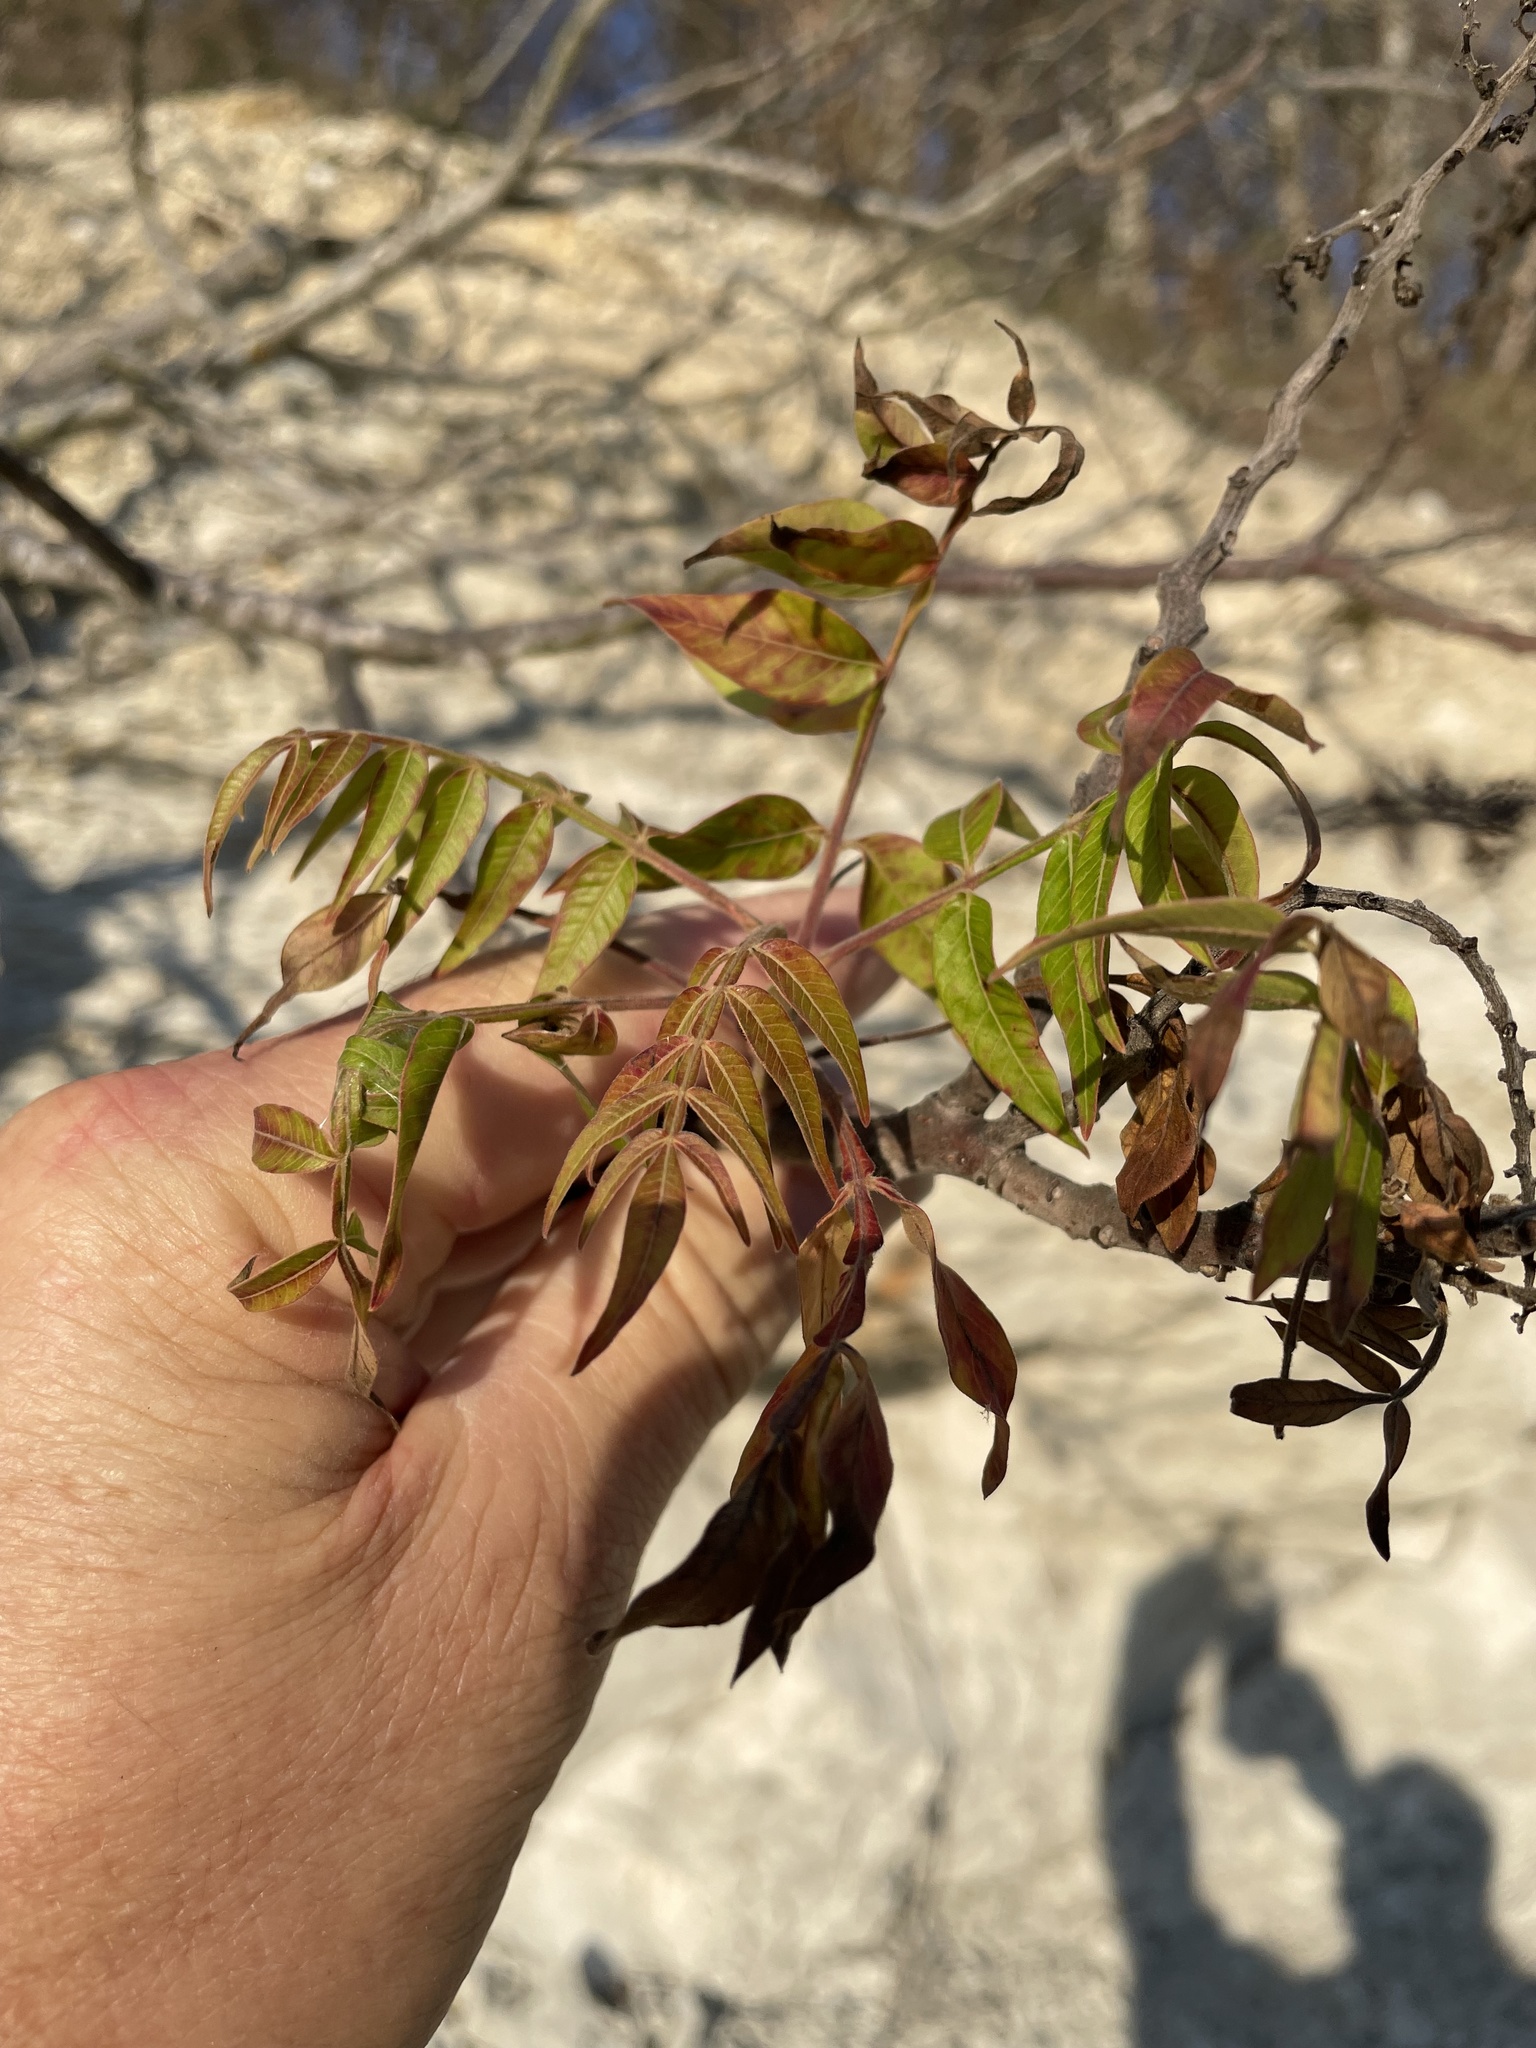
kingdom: Plantae
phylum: Tracheophyta
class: Magnoliopsida
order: Sapindales
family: Anacardiaceae
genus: Rhus
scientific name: Rhus lanceolata
